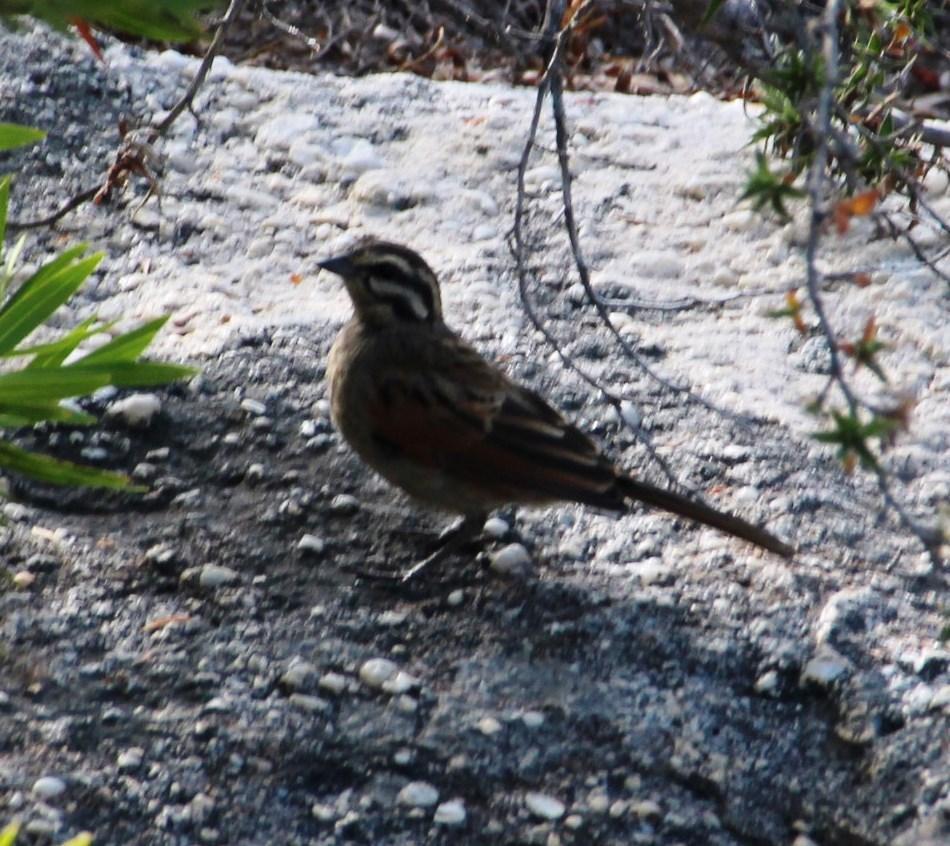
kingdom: Animalia
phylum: Chordata
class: Aves
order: Passeriformes
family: Emberizidae
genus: Emberiza
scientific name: Emberiza capensis
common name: Cape bunting
